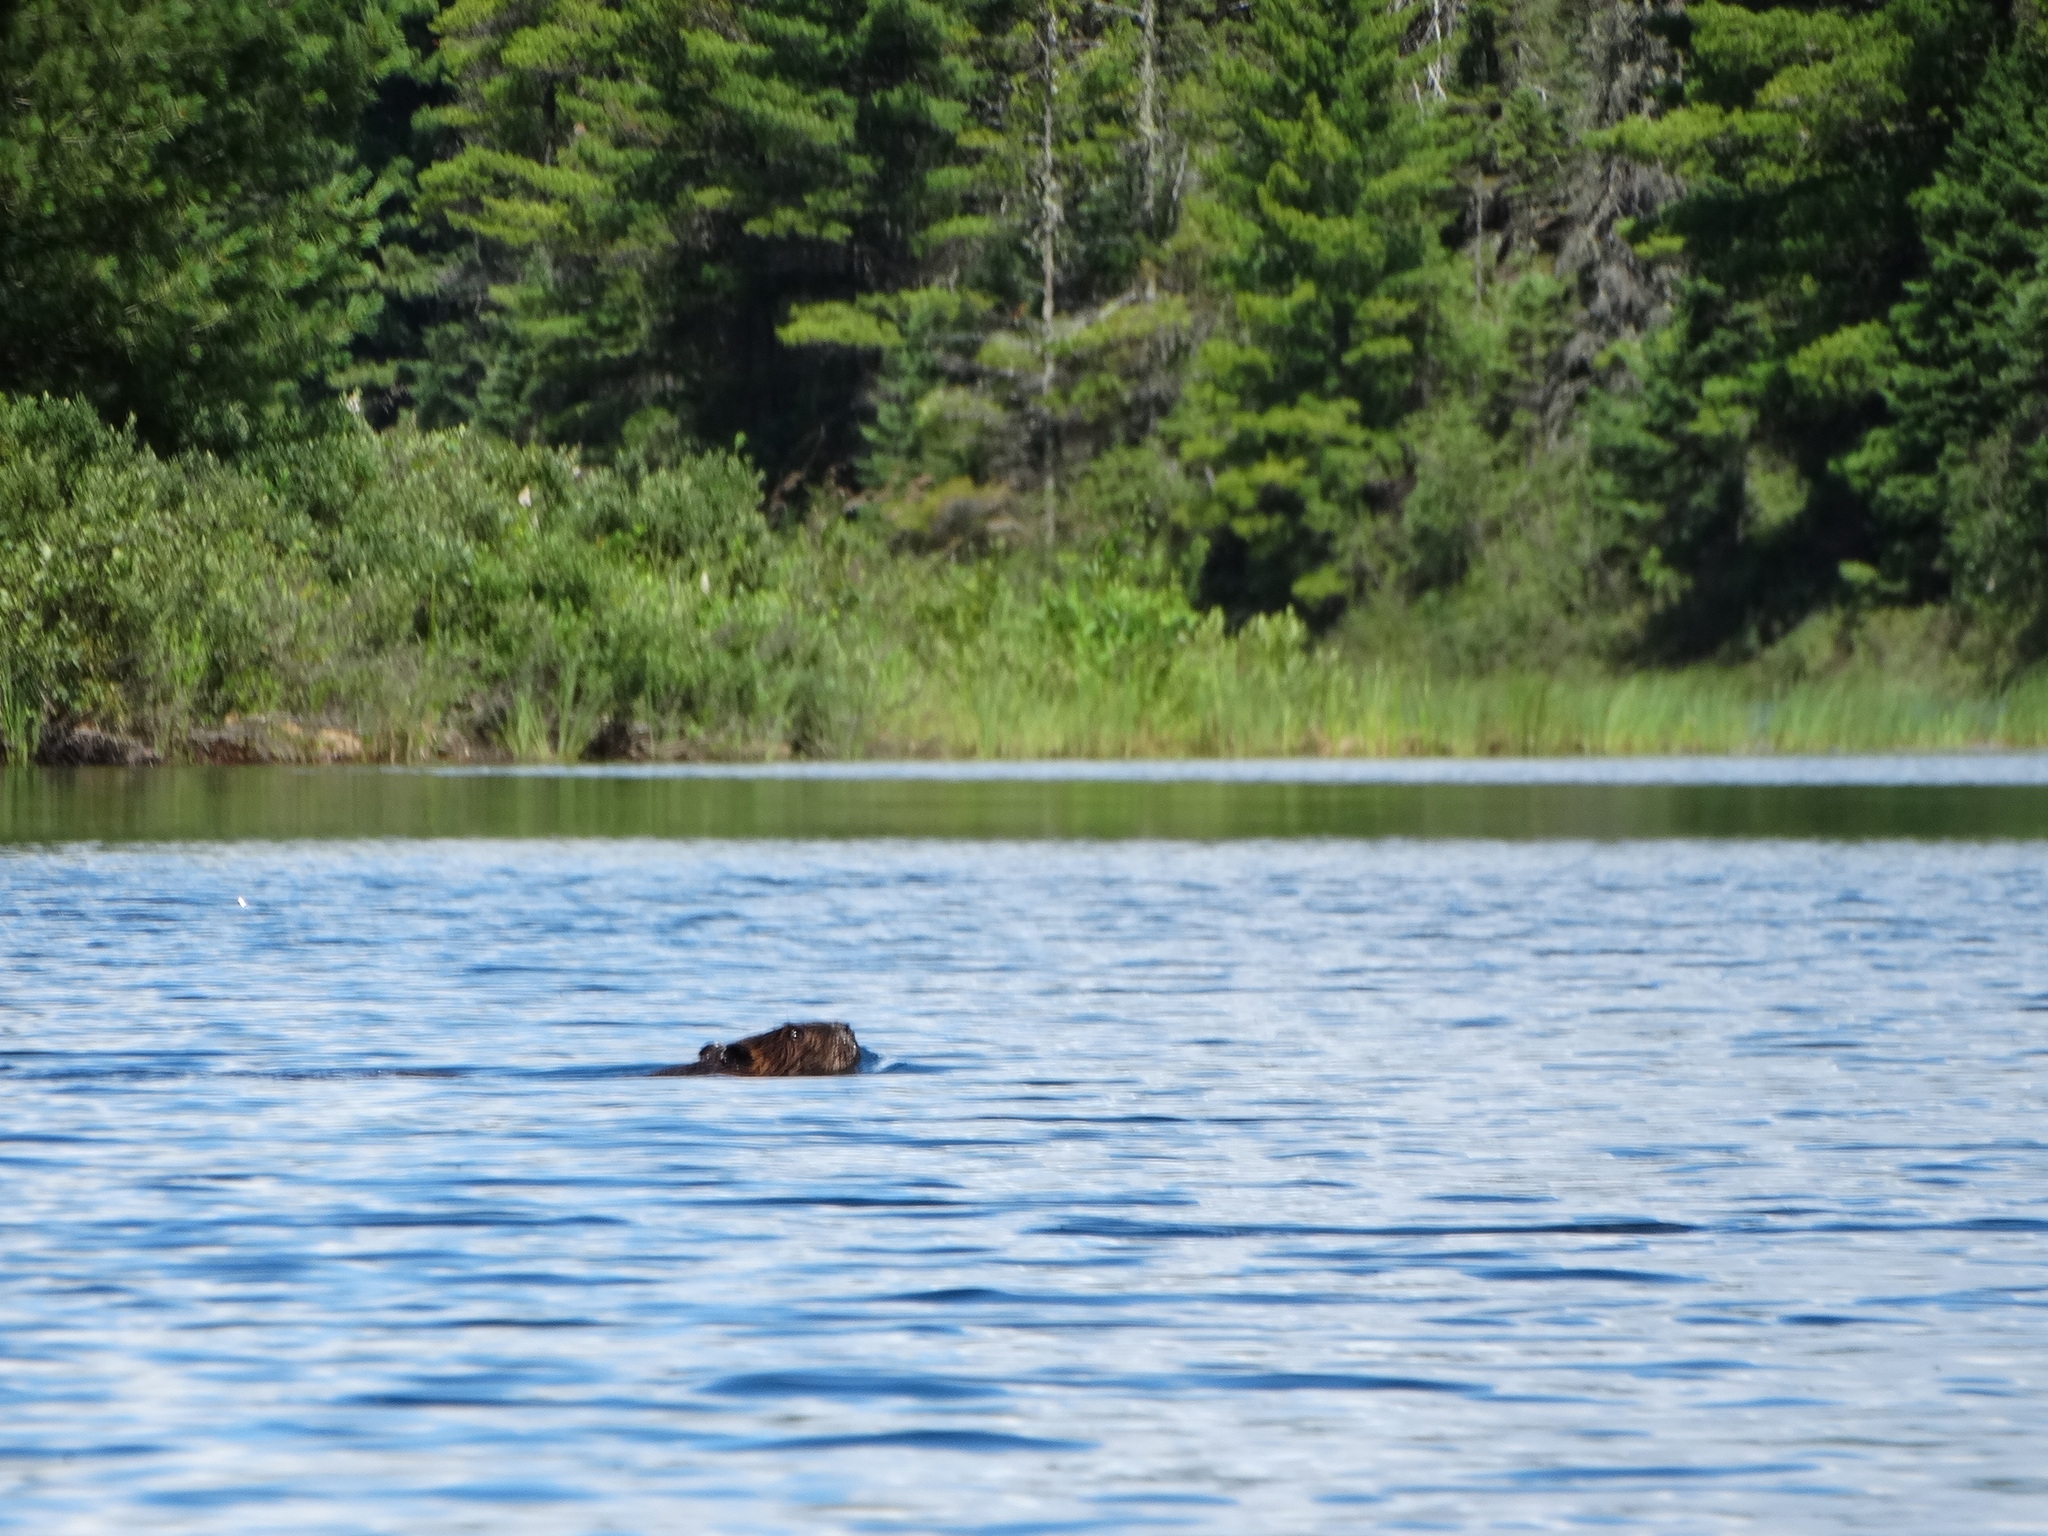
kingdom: Animalia
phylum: Chordata
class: Mammalia
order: Rodentia
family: Castoridae
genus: Castor
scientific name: Castor canadensis
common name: American beaver
